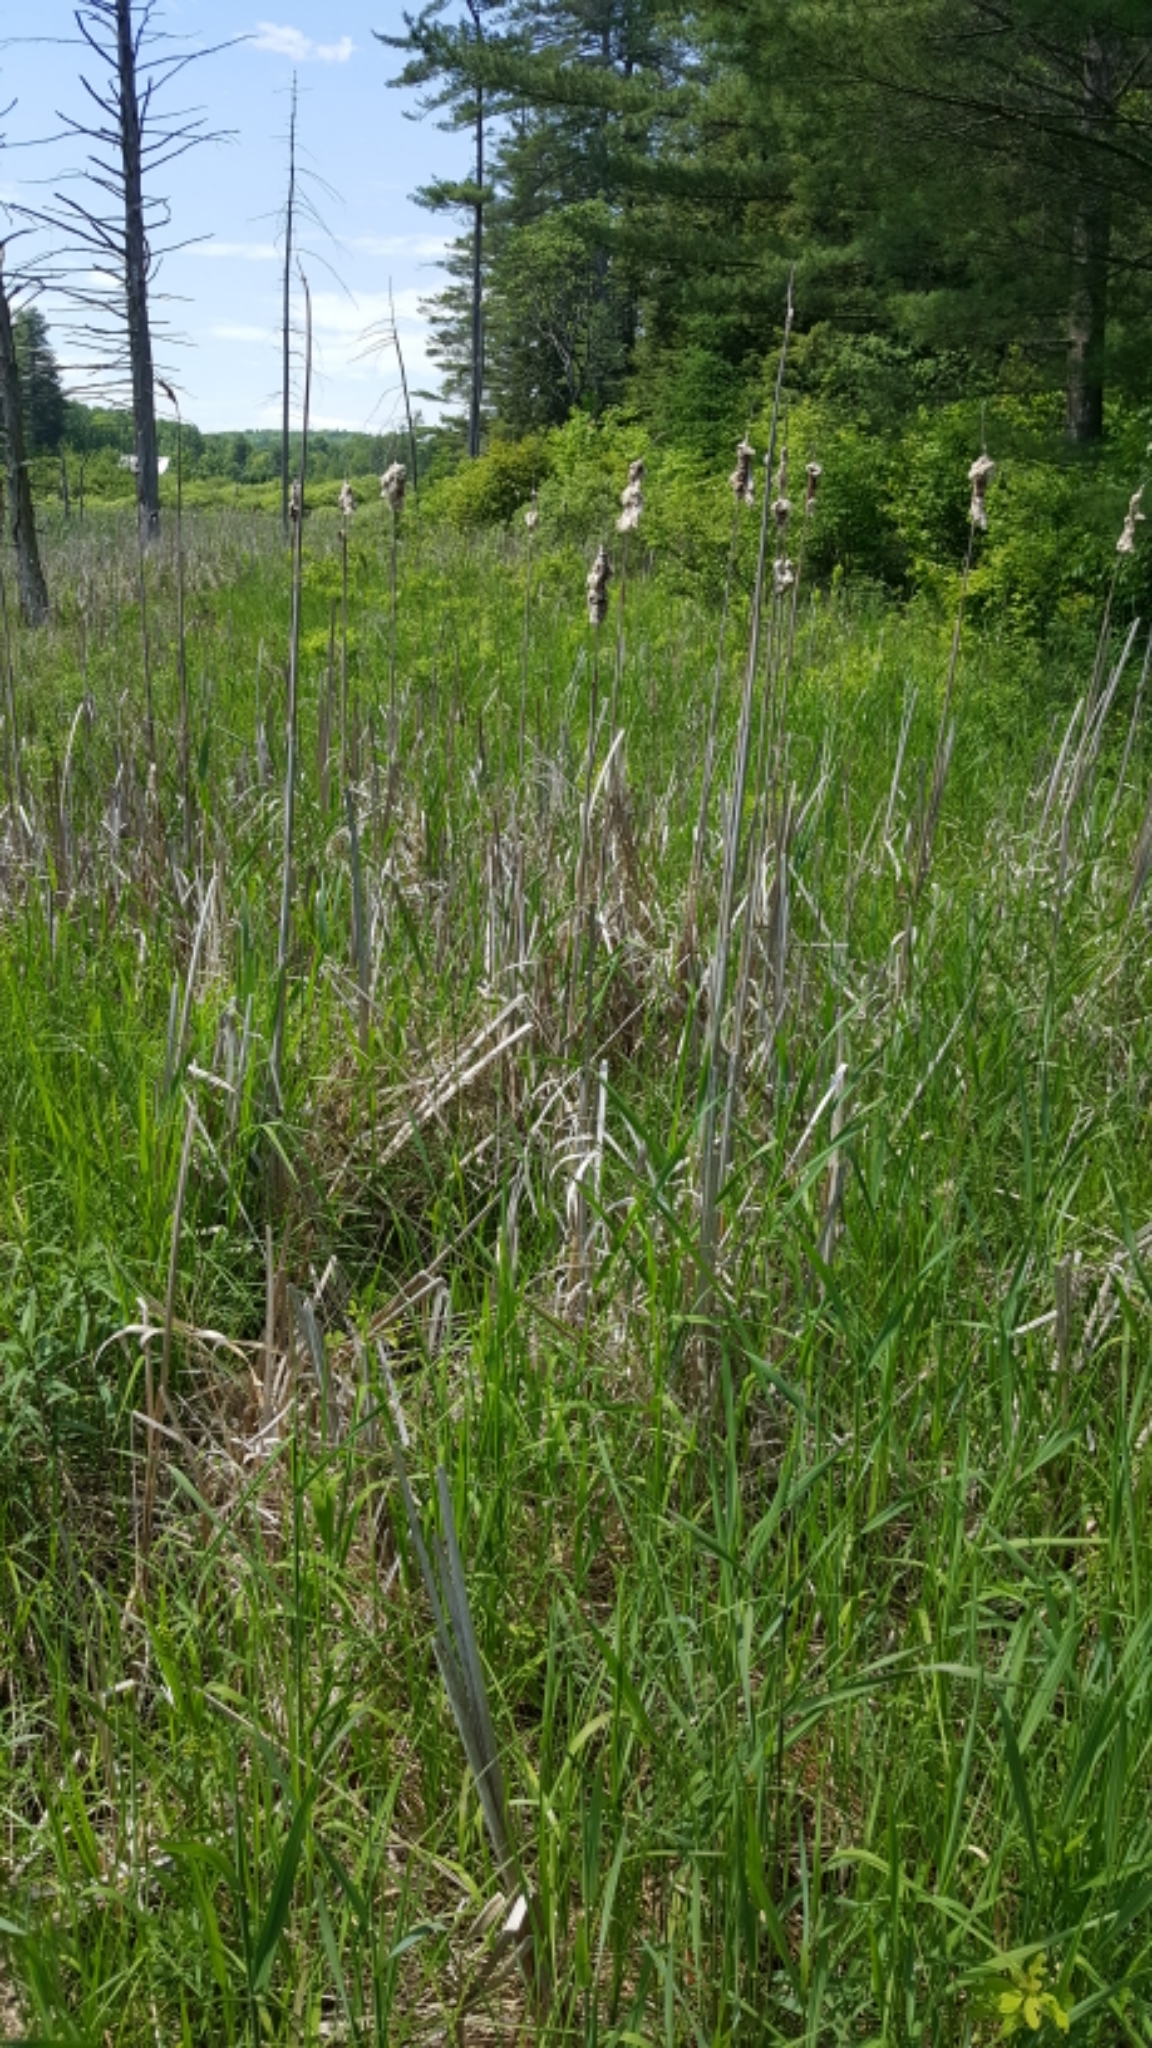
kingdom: Plantae
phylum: Tracheophyta
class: Liliopsida
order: Poales
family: Typhaceae
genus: Typha
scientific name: Typha
